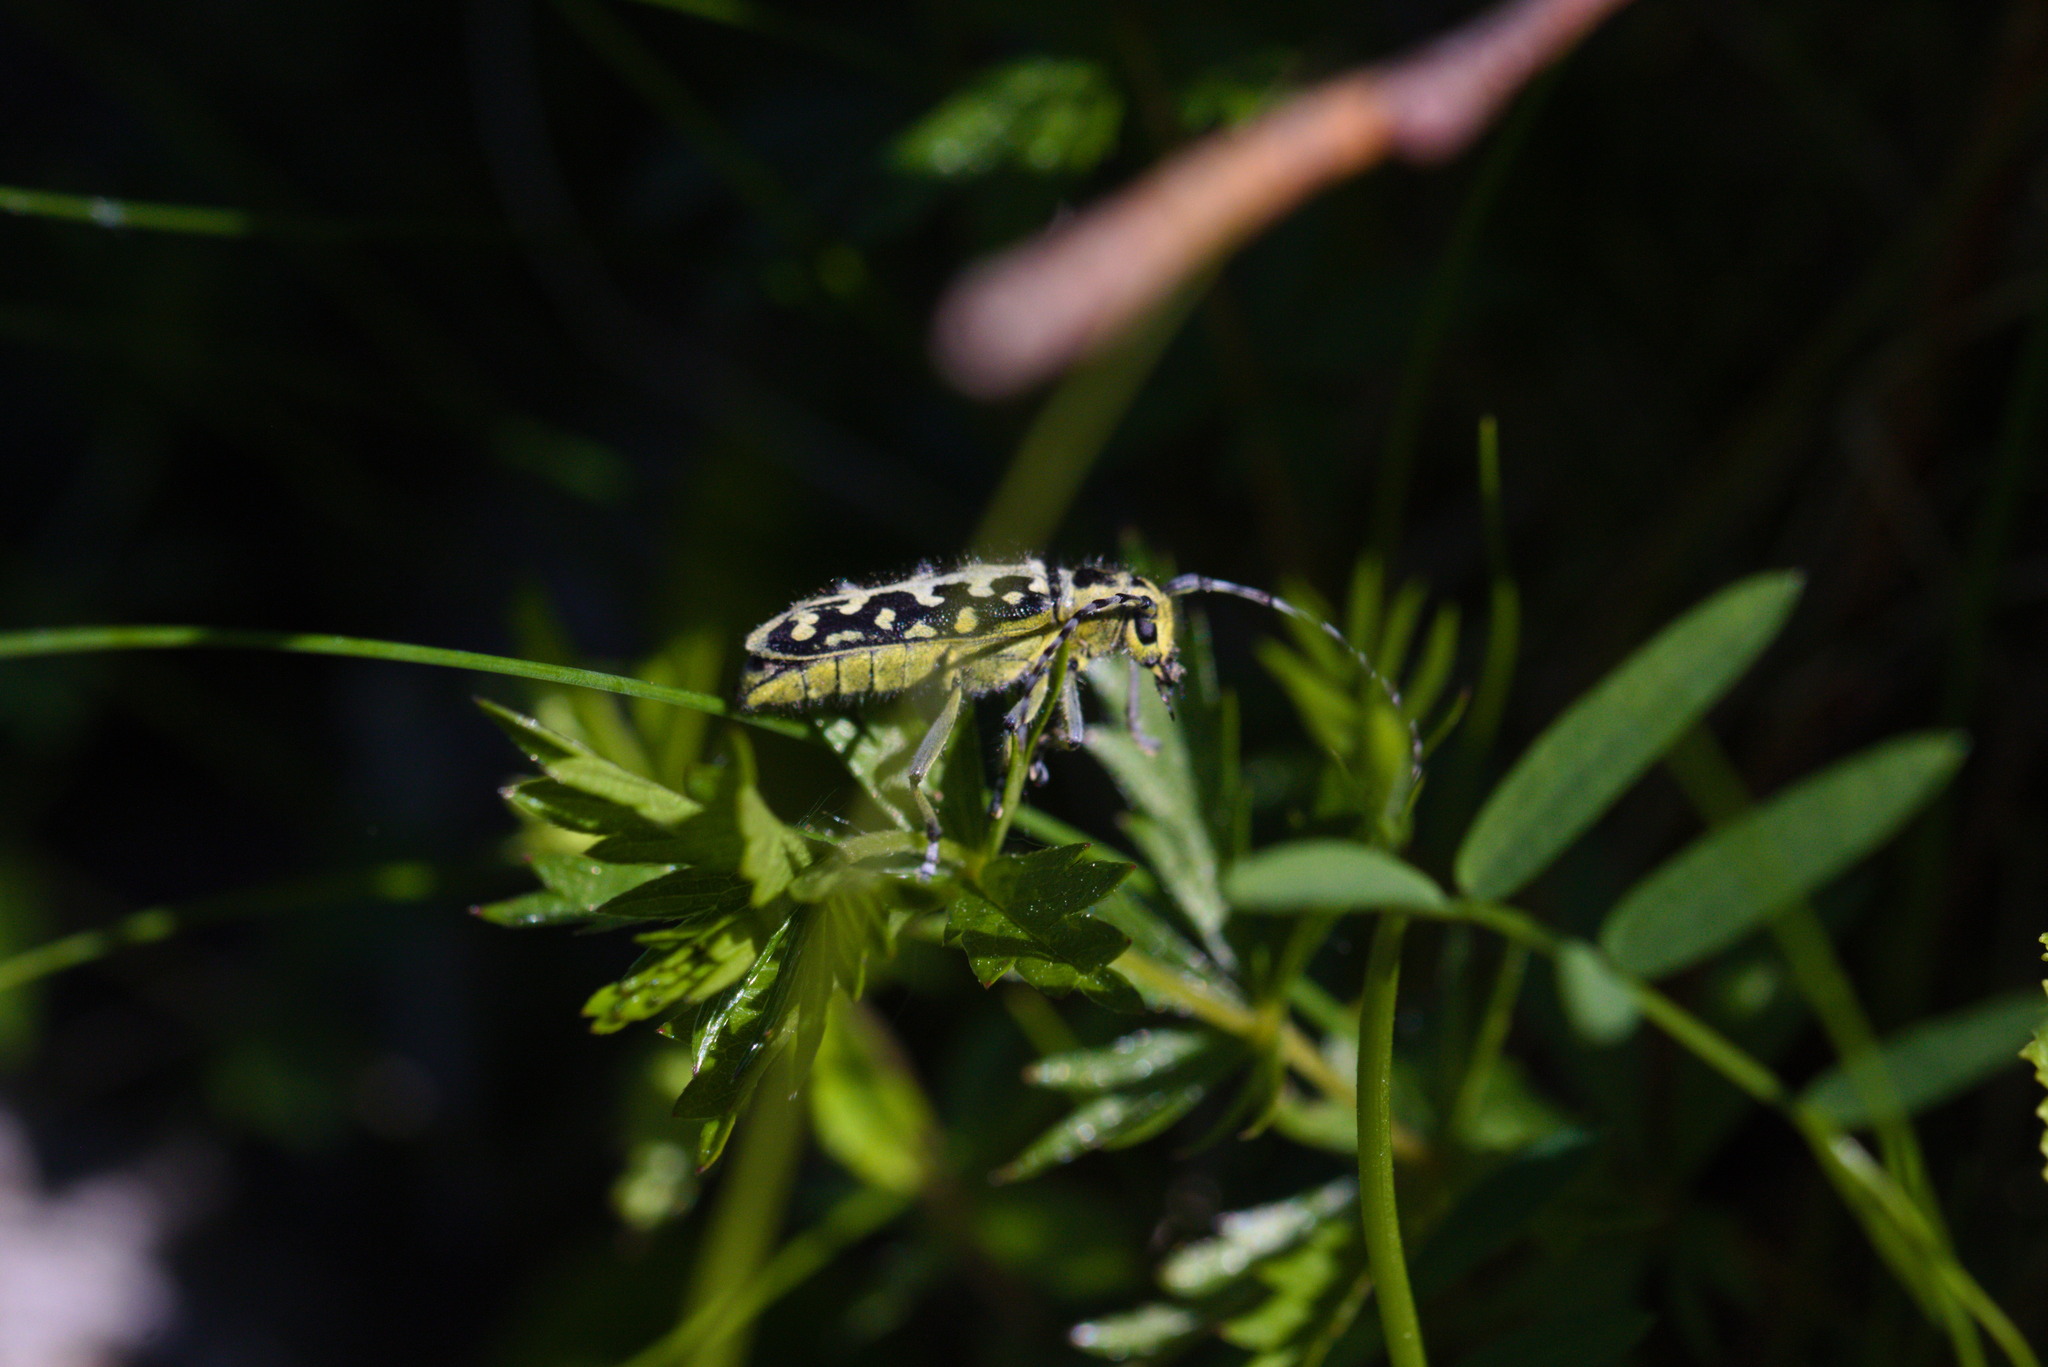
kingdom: Animalia
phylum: Arthropoda
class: Insecta
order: Coleoptera
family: Cerambycidae
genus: Saperda
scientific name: Saperda scalaris
